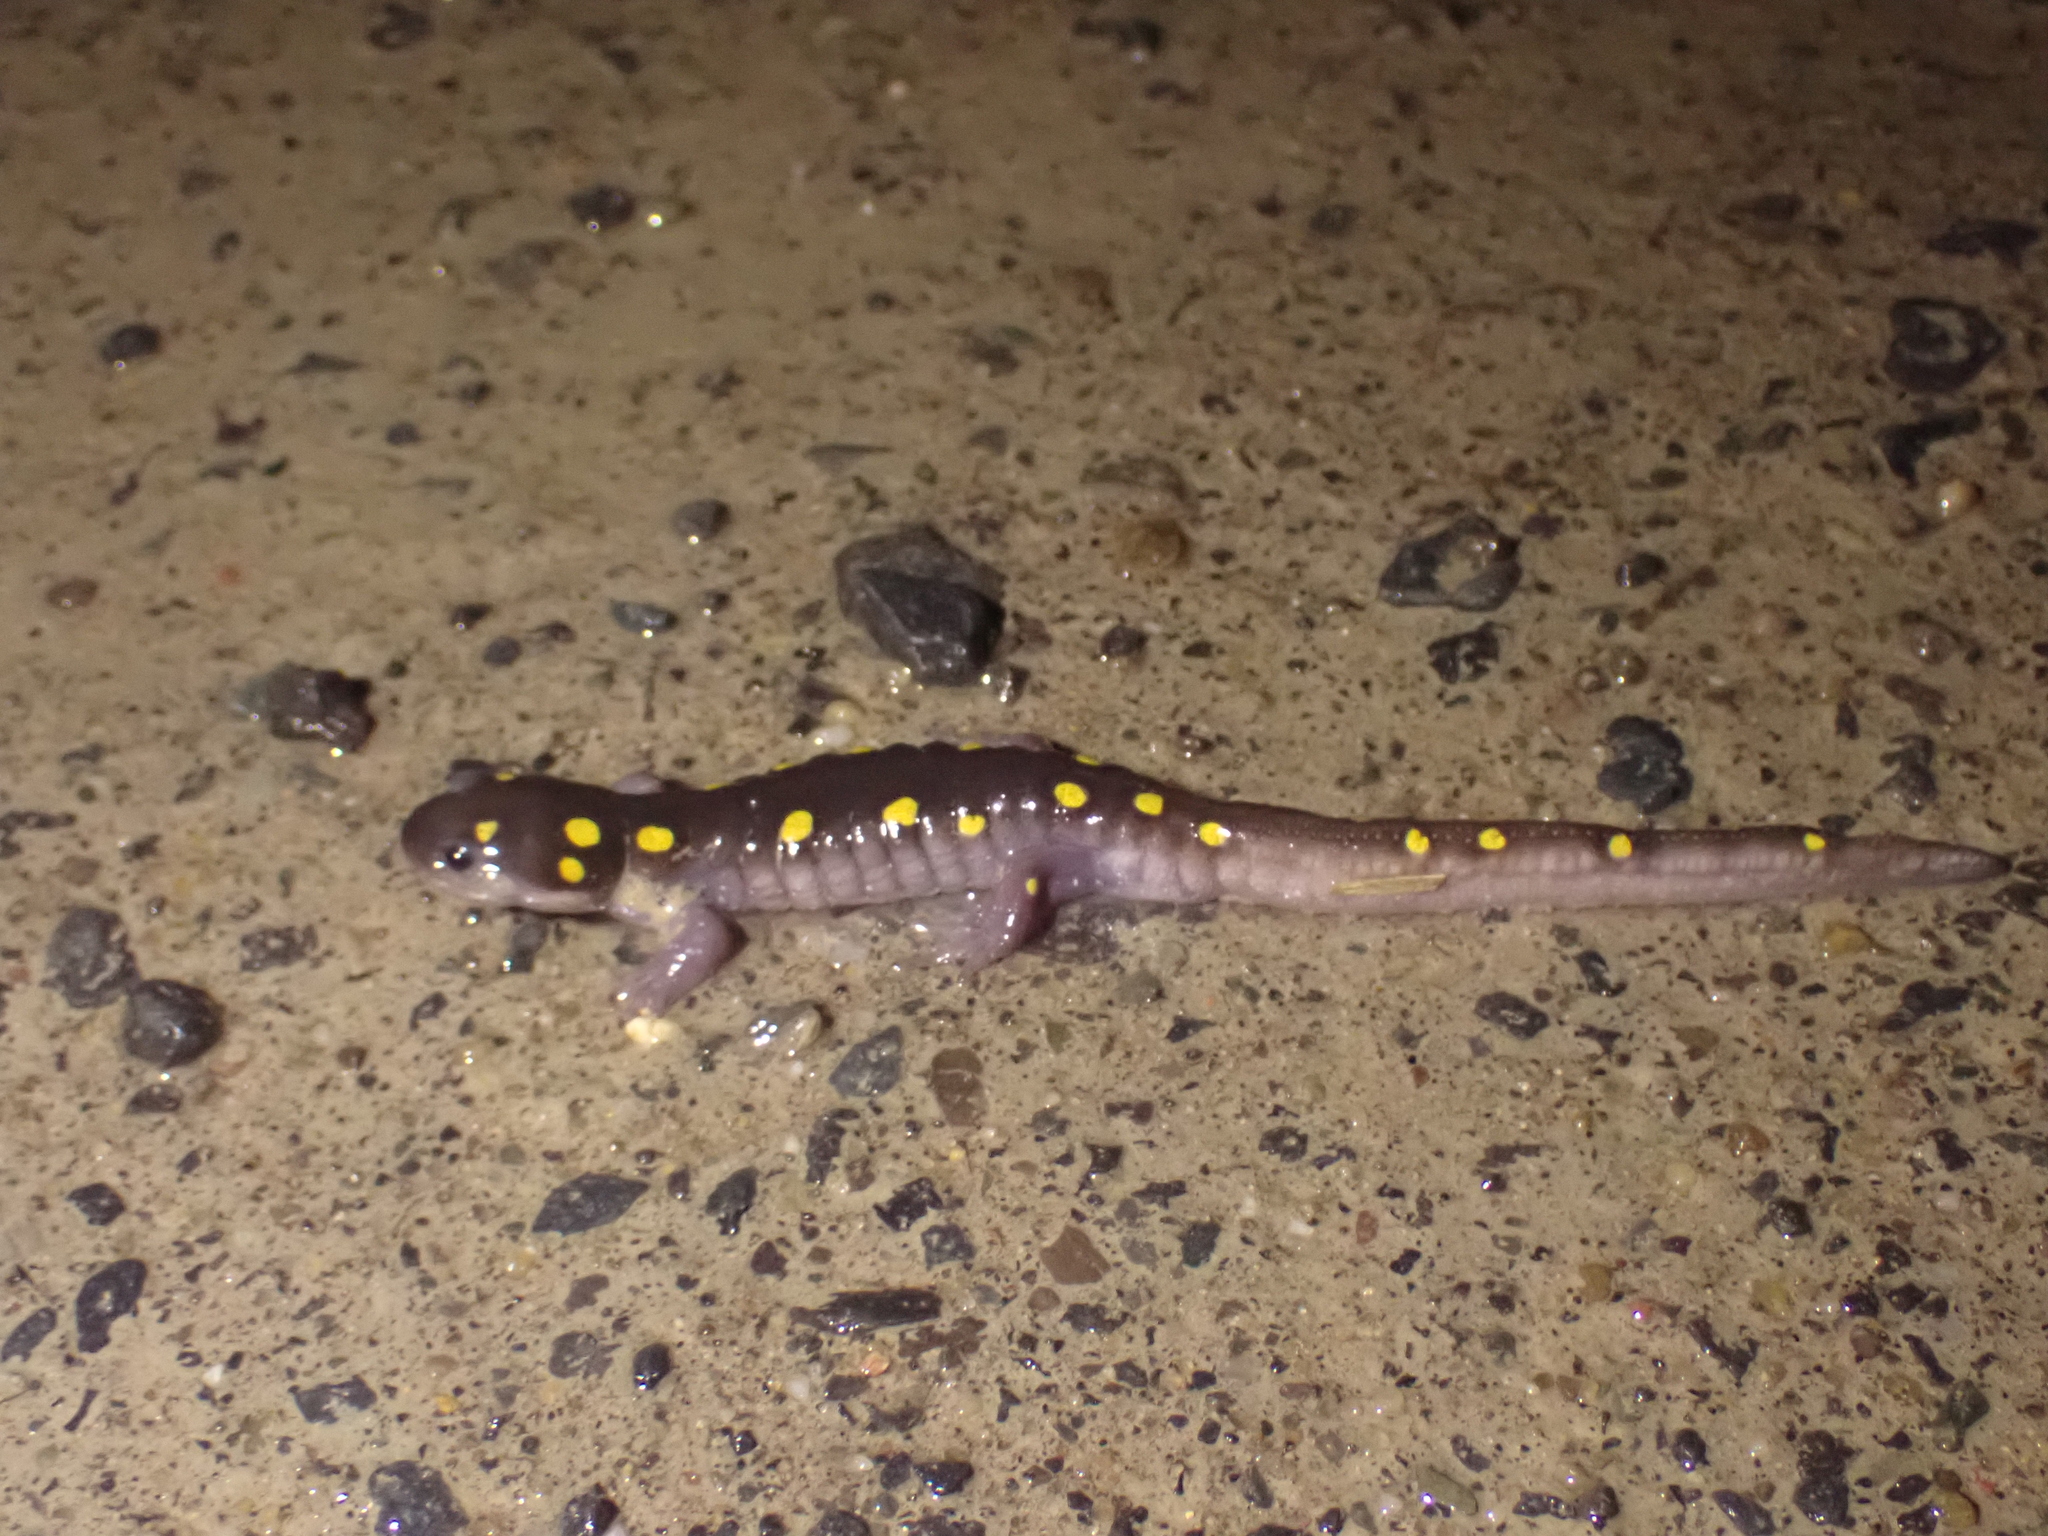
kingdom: Animalia
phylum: Chordata
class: Amphibia
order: Caudata
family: Ambystomatidae
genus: Ambystoma
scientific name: Ambystoma maculatum
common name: Spotted salamander
